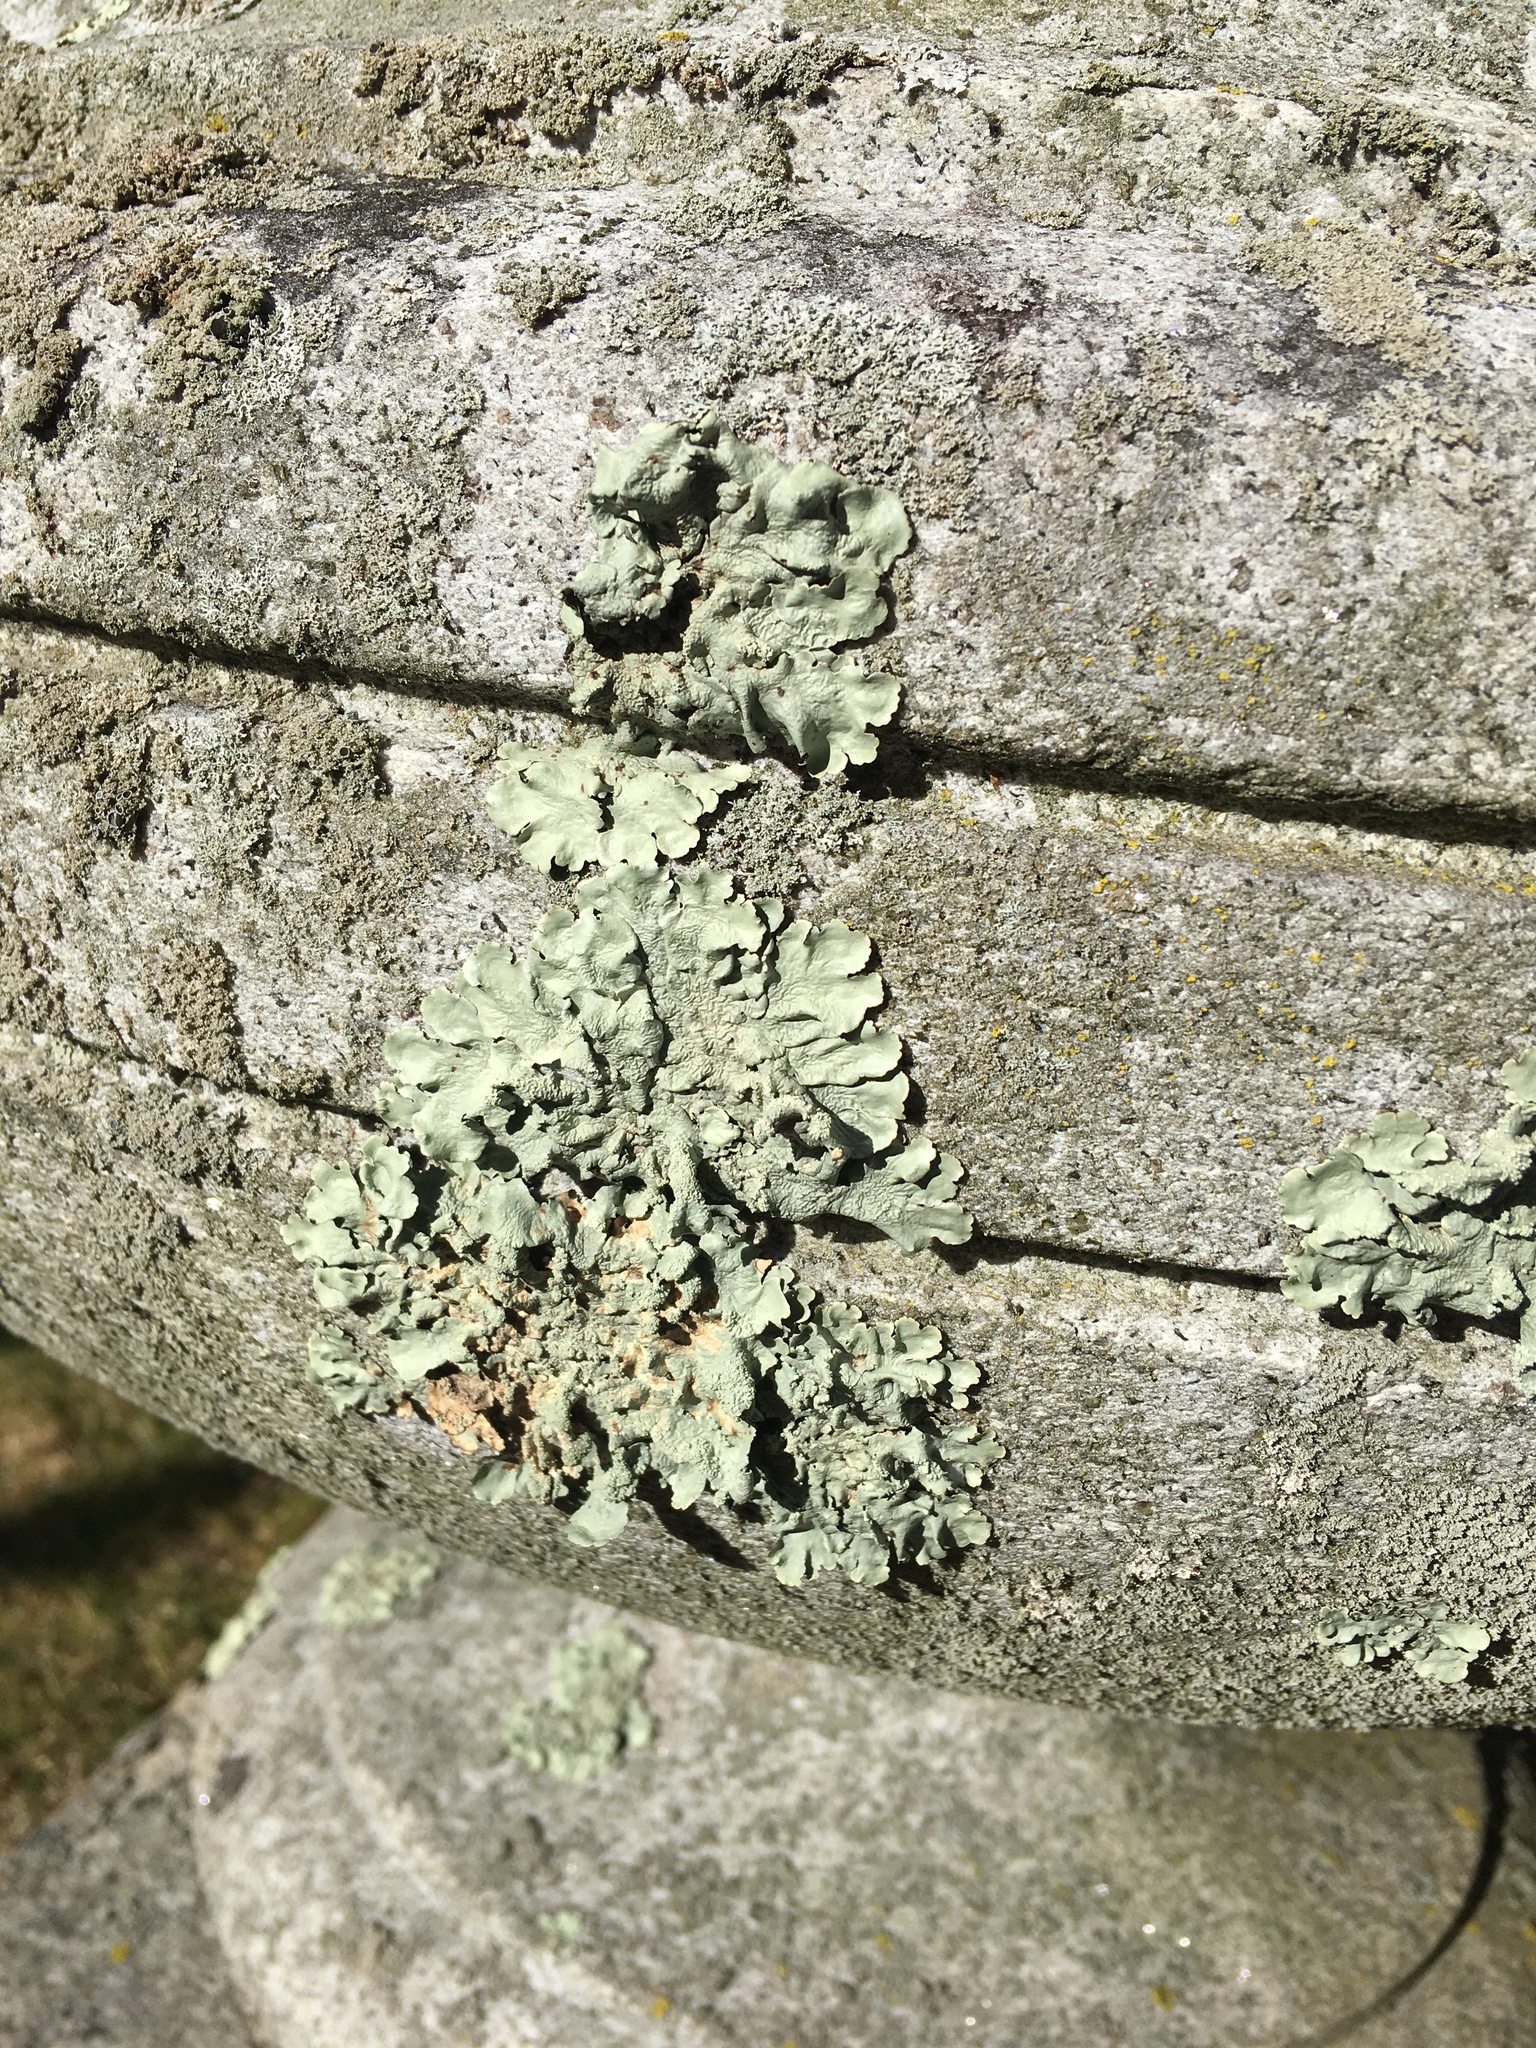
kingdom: Fungi
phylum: Ascomycota
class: Lecanoromycetes
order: Lecanorales
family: Parmeliaceae
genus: Flavoparmelia
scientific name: Flavoparmelia caperata
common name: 40-mile per hour lichen
